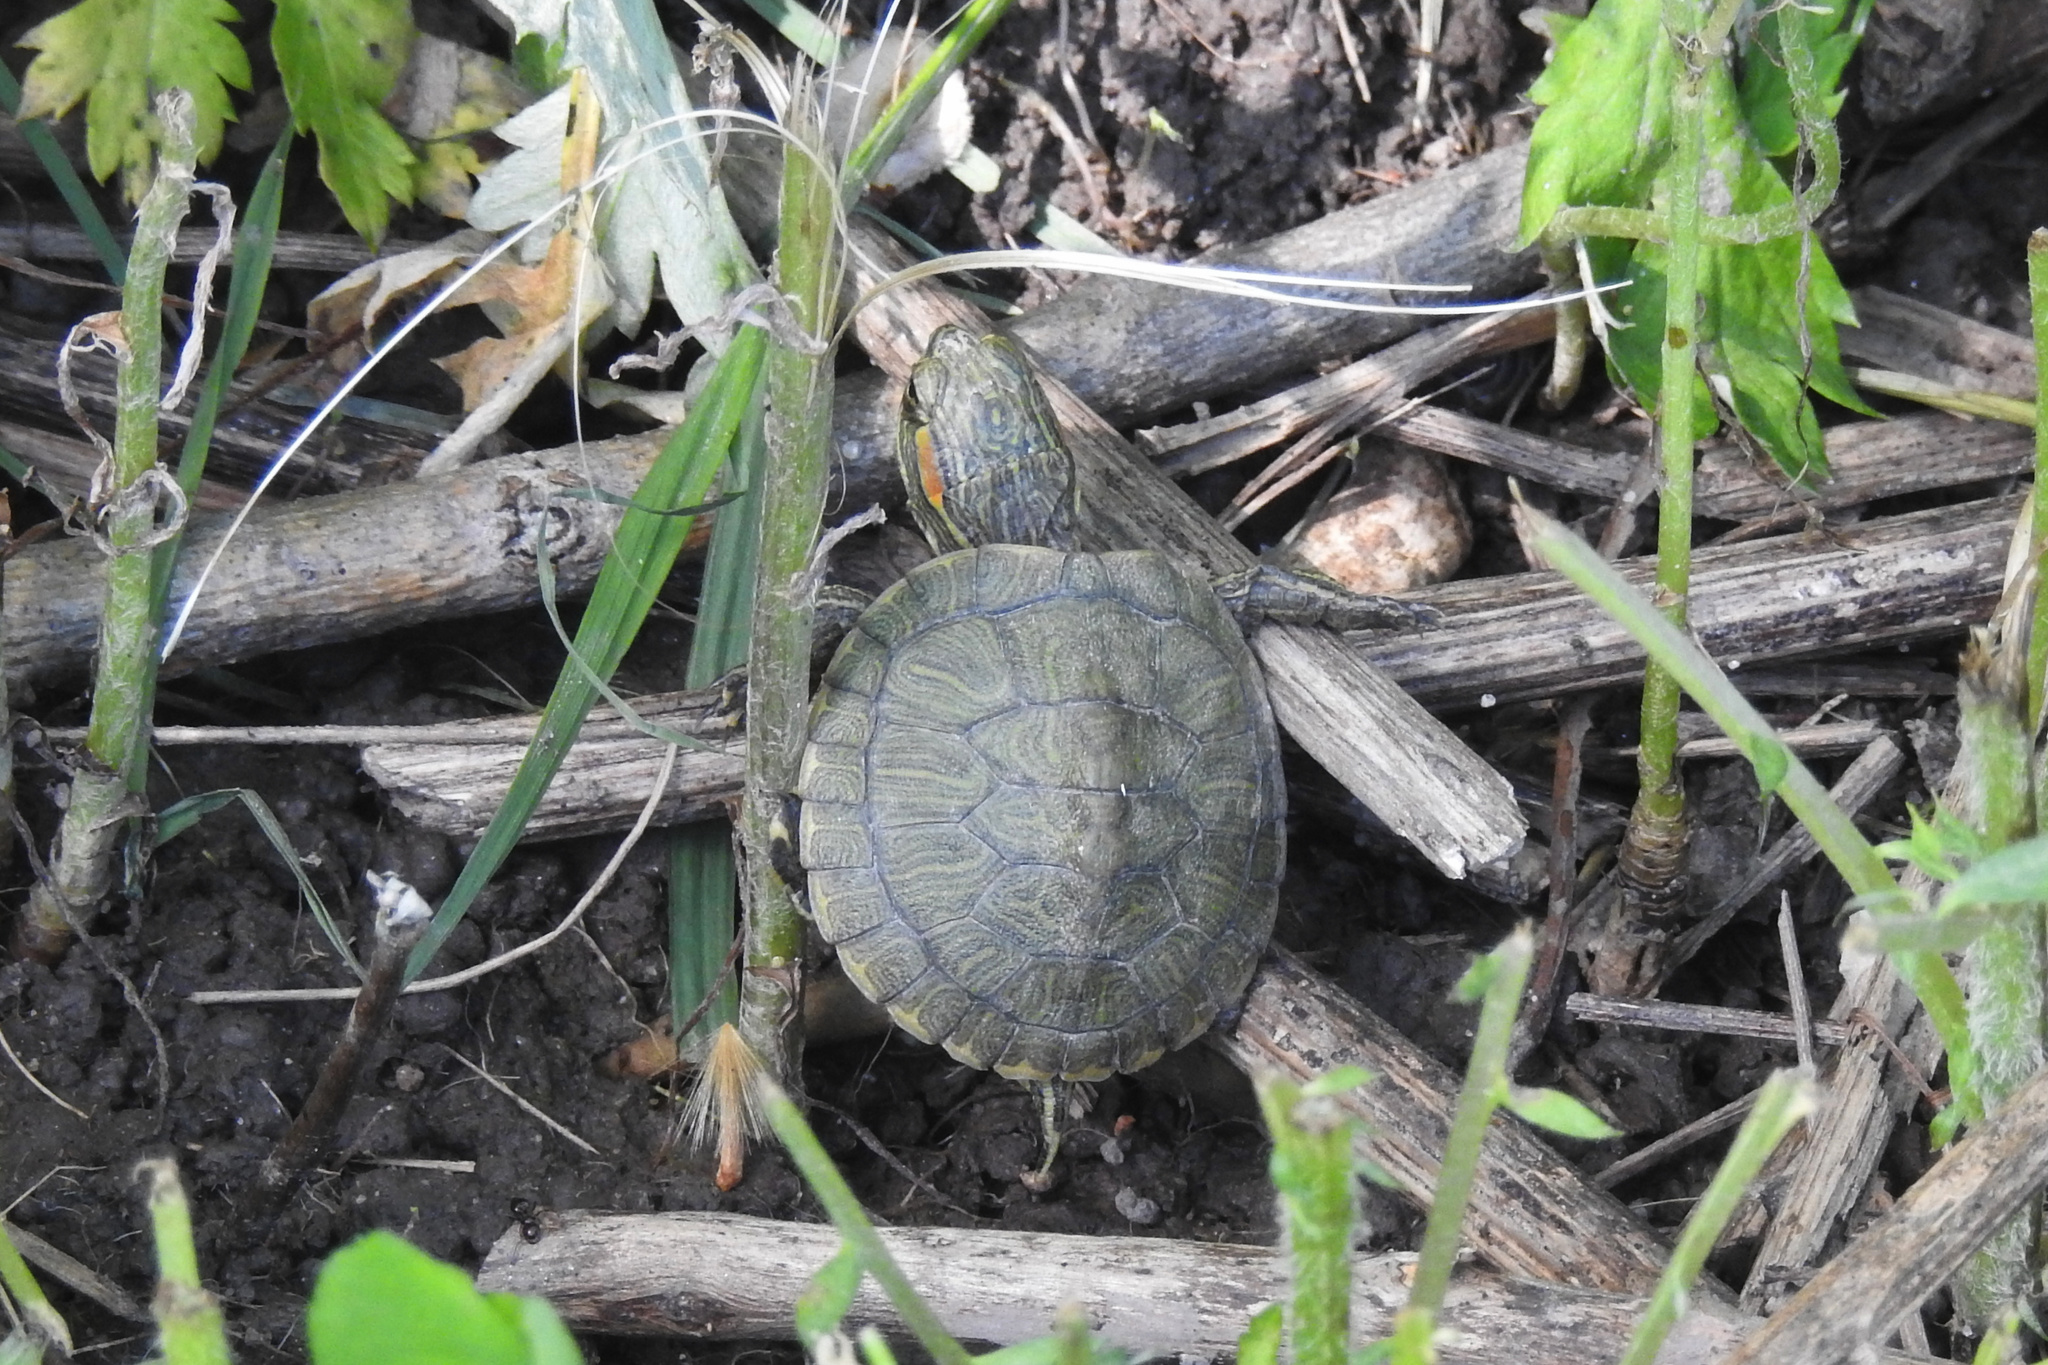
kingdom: Animalia
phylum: Chordata
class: Testudines
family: Emydidae
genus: Trachemys
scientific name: Trachemys scripta
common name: Slider
